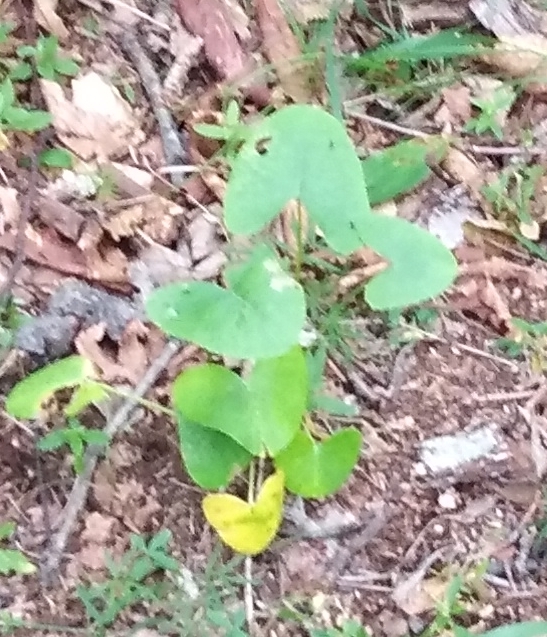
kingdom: Plantae
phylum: Tracheophyta
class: Magnoliopsida
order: Asterales
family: Asteraceae
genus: Ligularia
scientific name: Ligularia calthifolia
